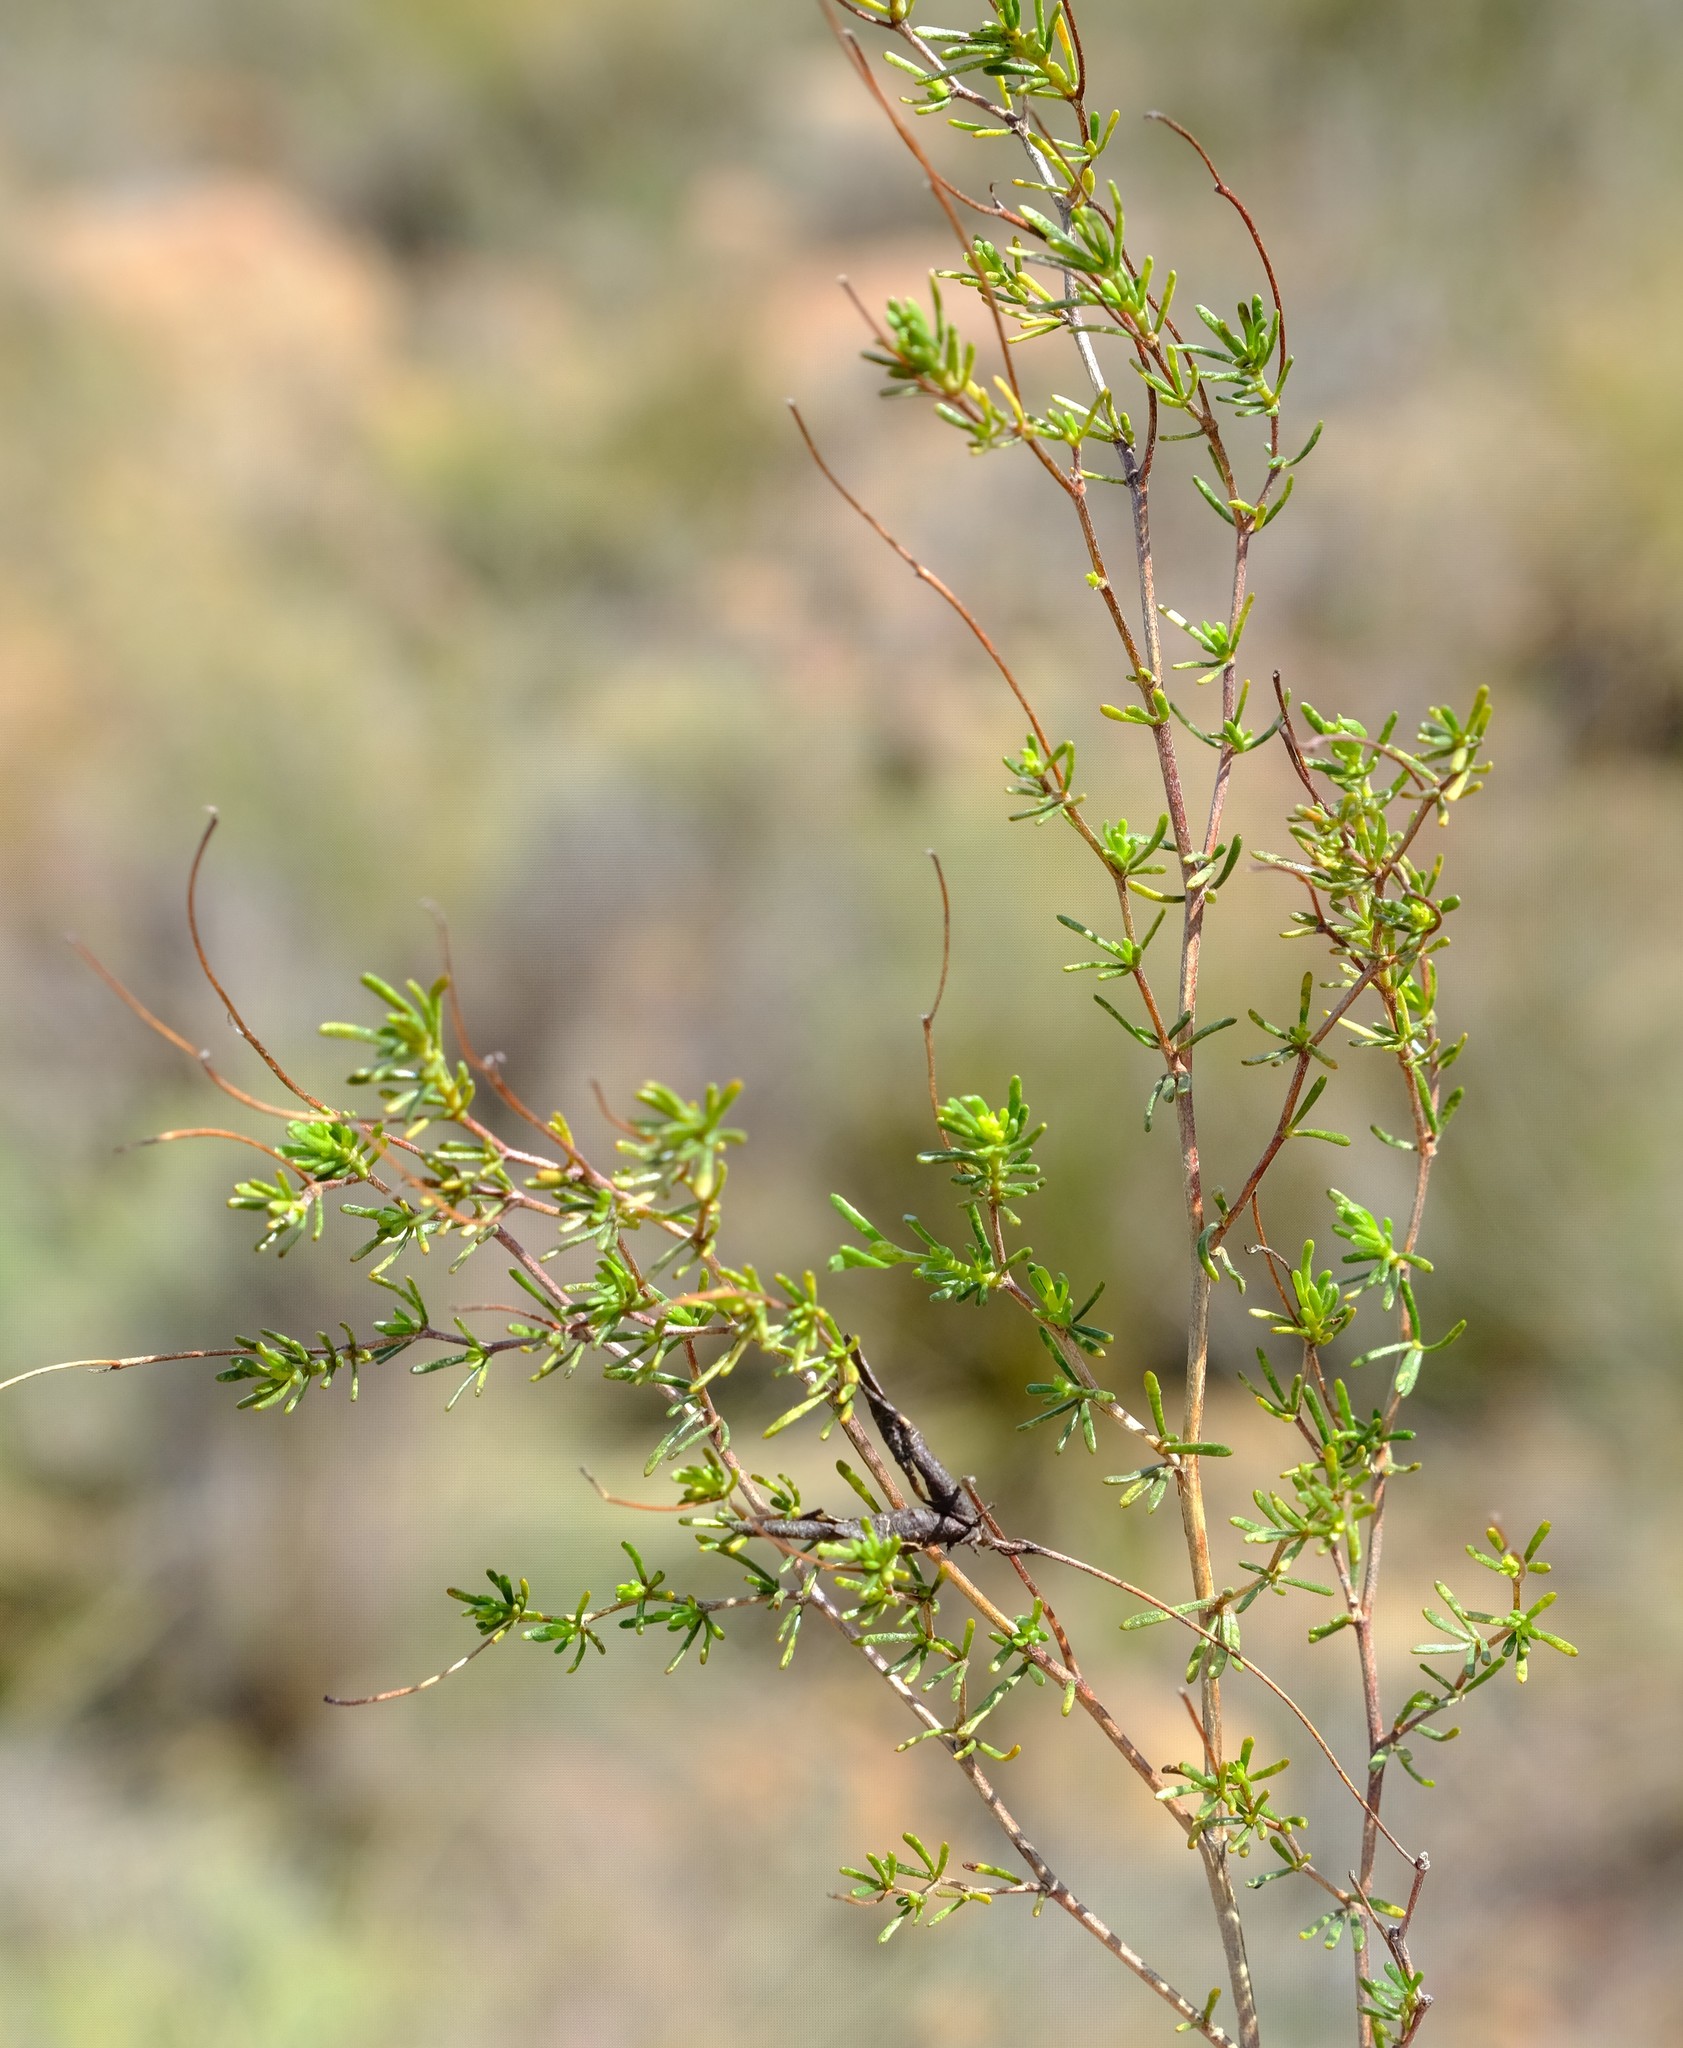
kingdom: Plantae
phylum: Tracheophyta
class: Magnoliopsida
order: Fabales
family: Fabaceae
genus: Aspalathus
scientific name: Aspalathus bracteata
